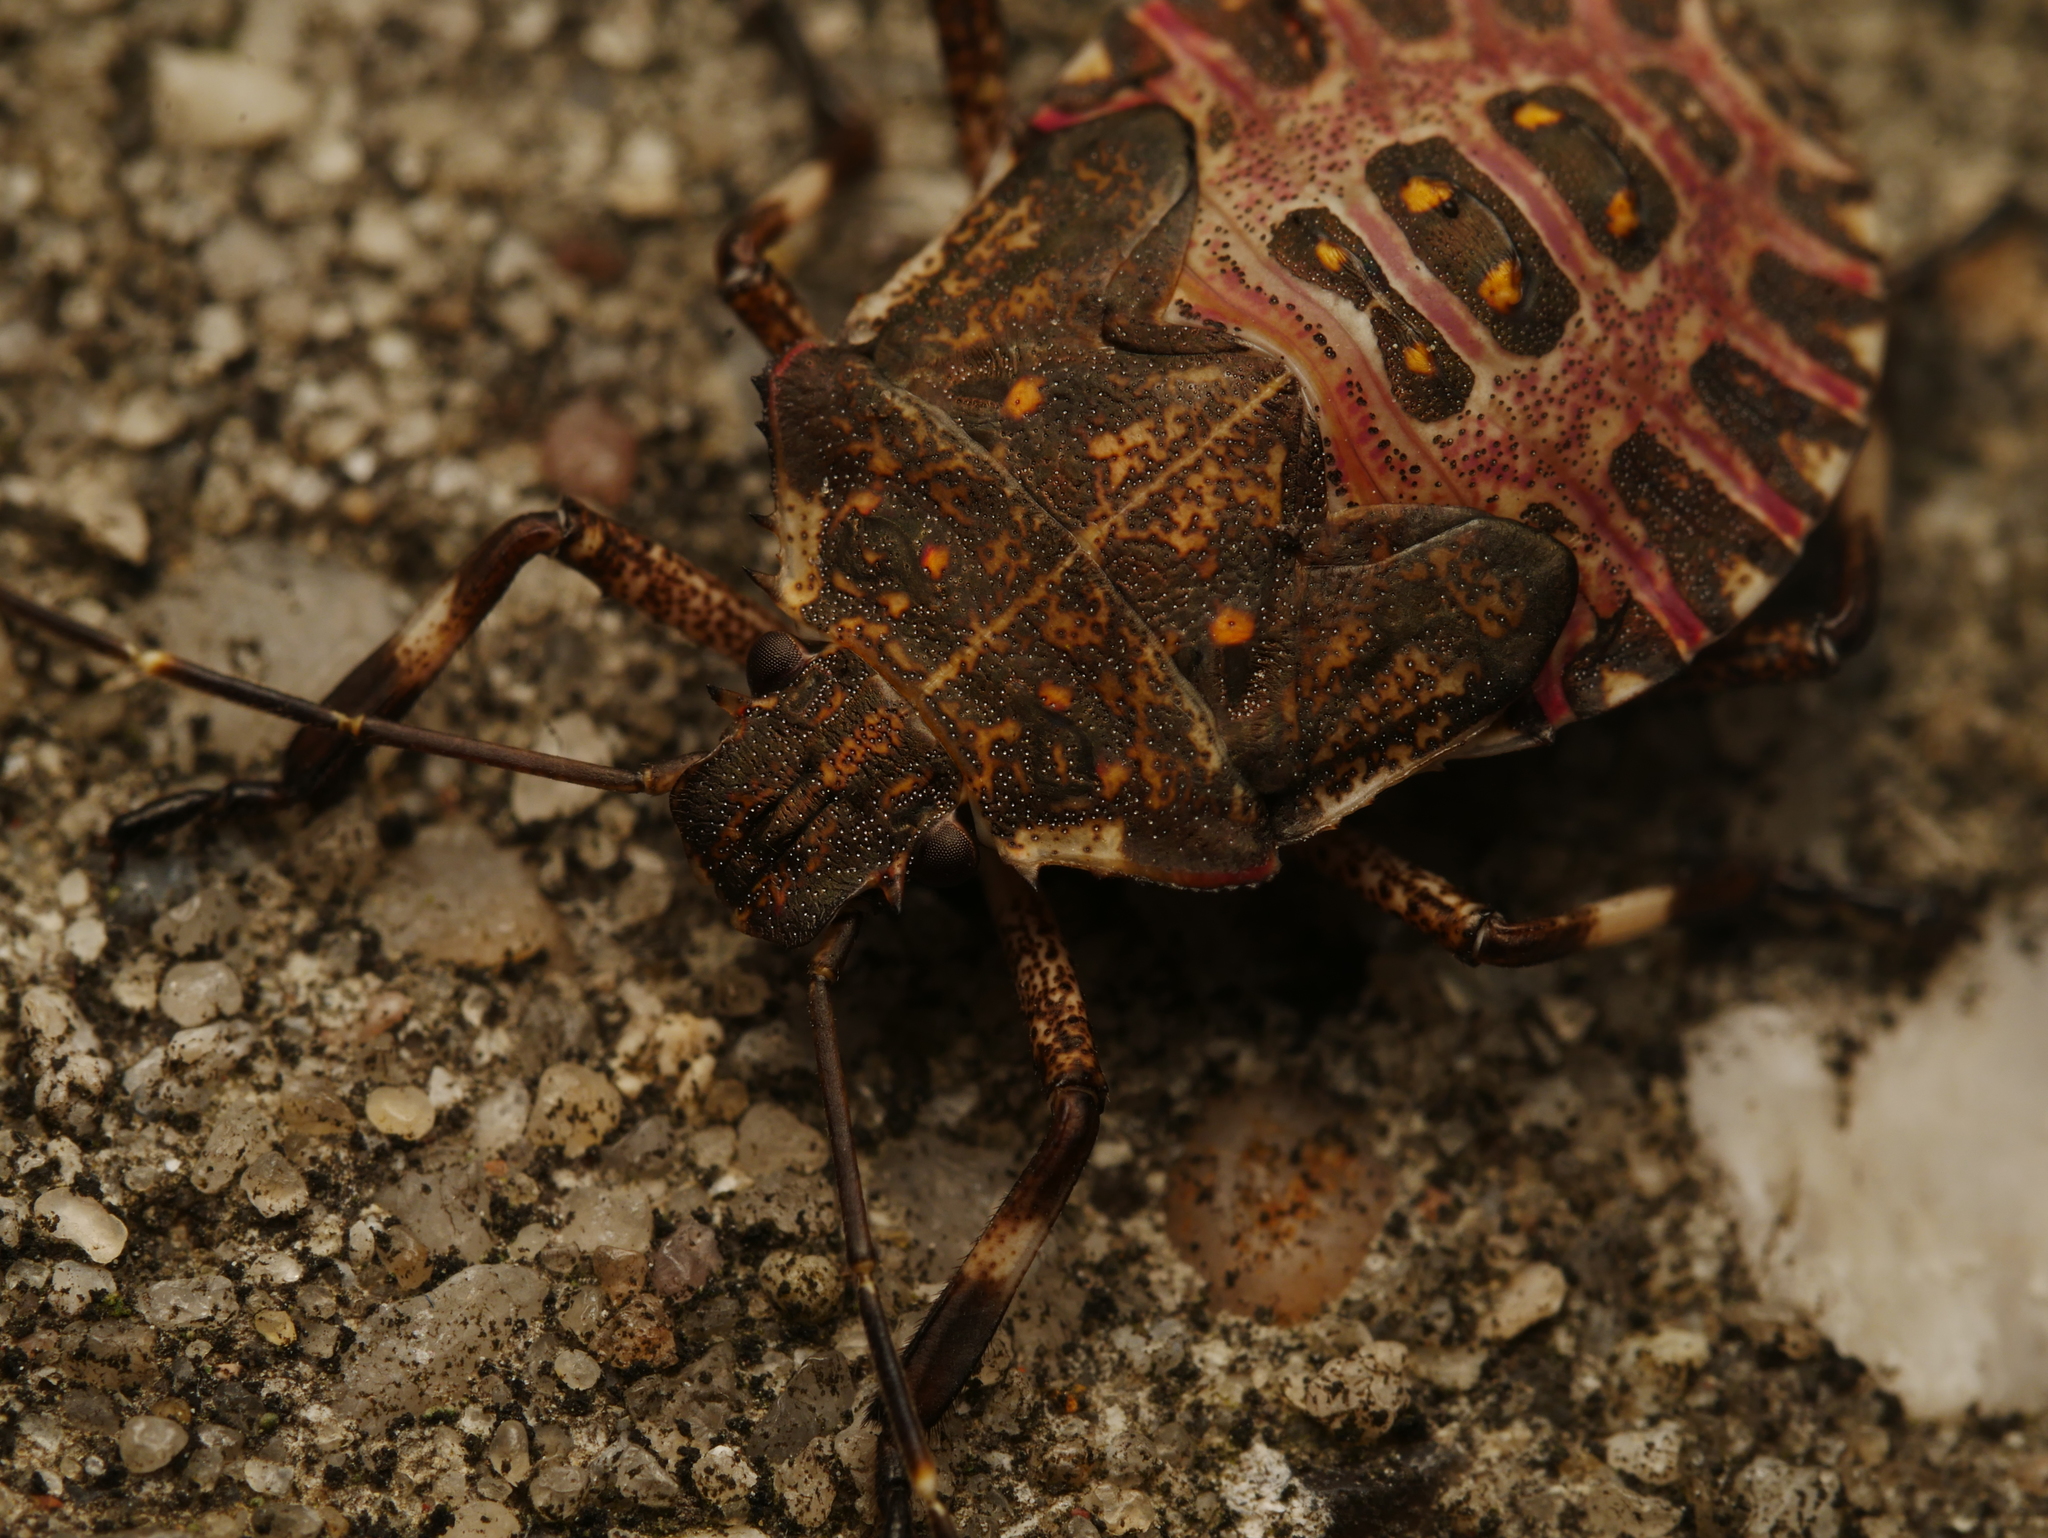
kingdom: Animalia
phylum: Arthropoda
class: Insecta
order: Hemiptera
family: Pentatomidae
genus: Halyomorpha
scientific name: Halyomorpha halys
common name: Brown marmorated stink bug
